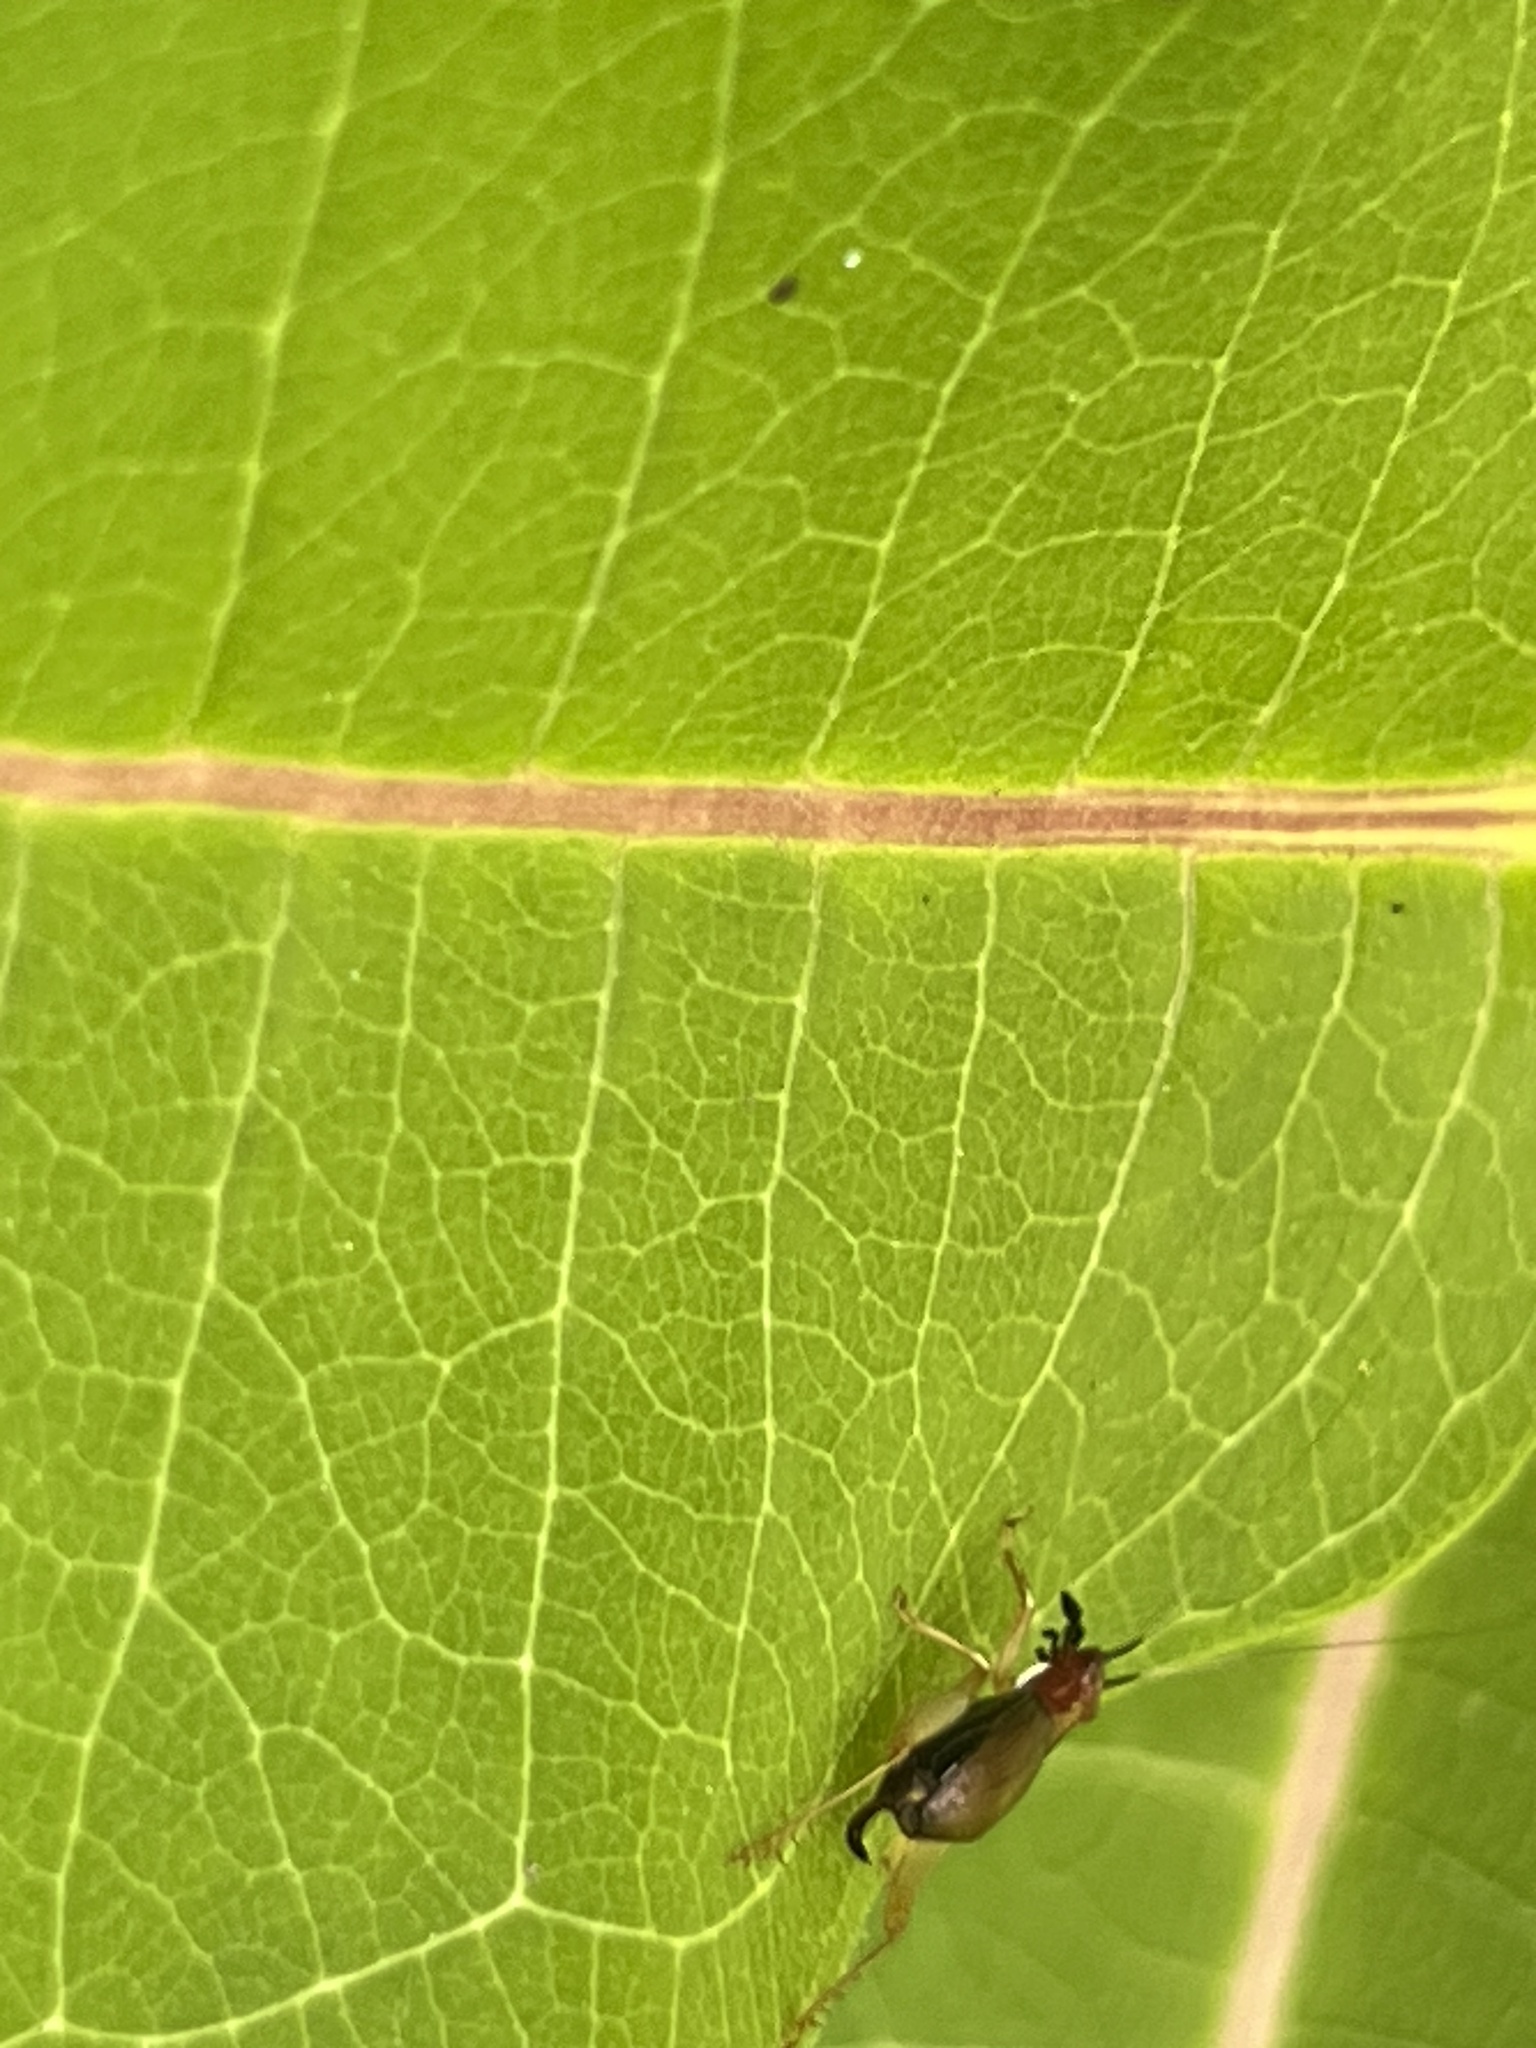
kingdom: Animalia
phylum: Arthropoda
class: Insecta
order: Orthoptera
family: Trigonidiidae
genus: Phyllopalpus
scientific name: Phyllopalpus pulchellus
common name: Handsome trig
